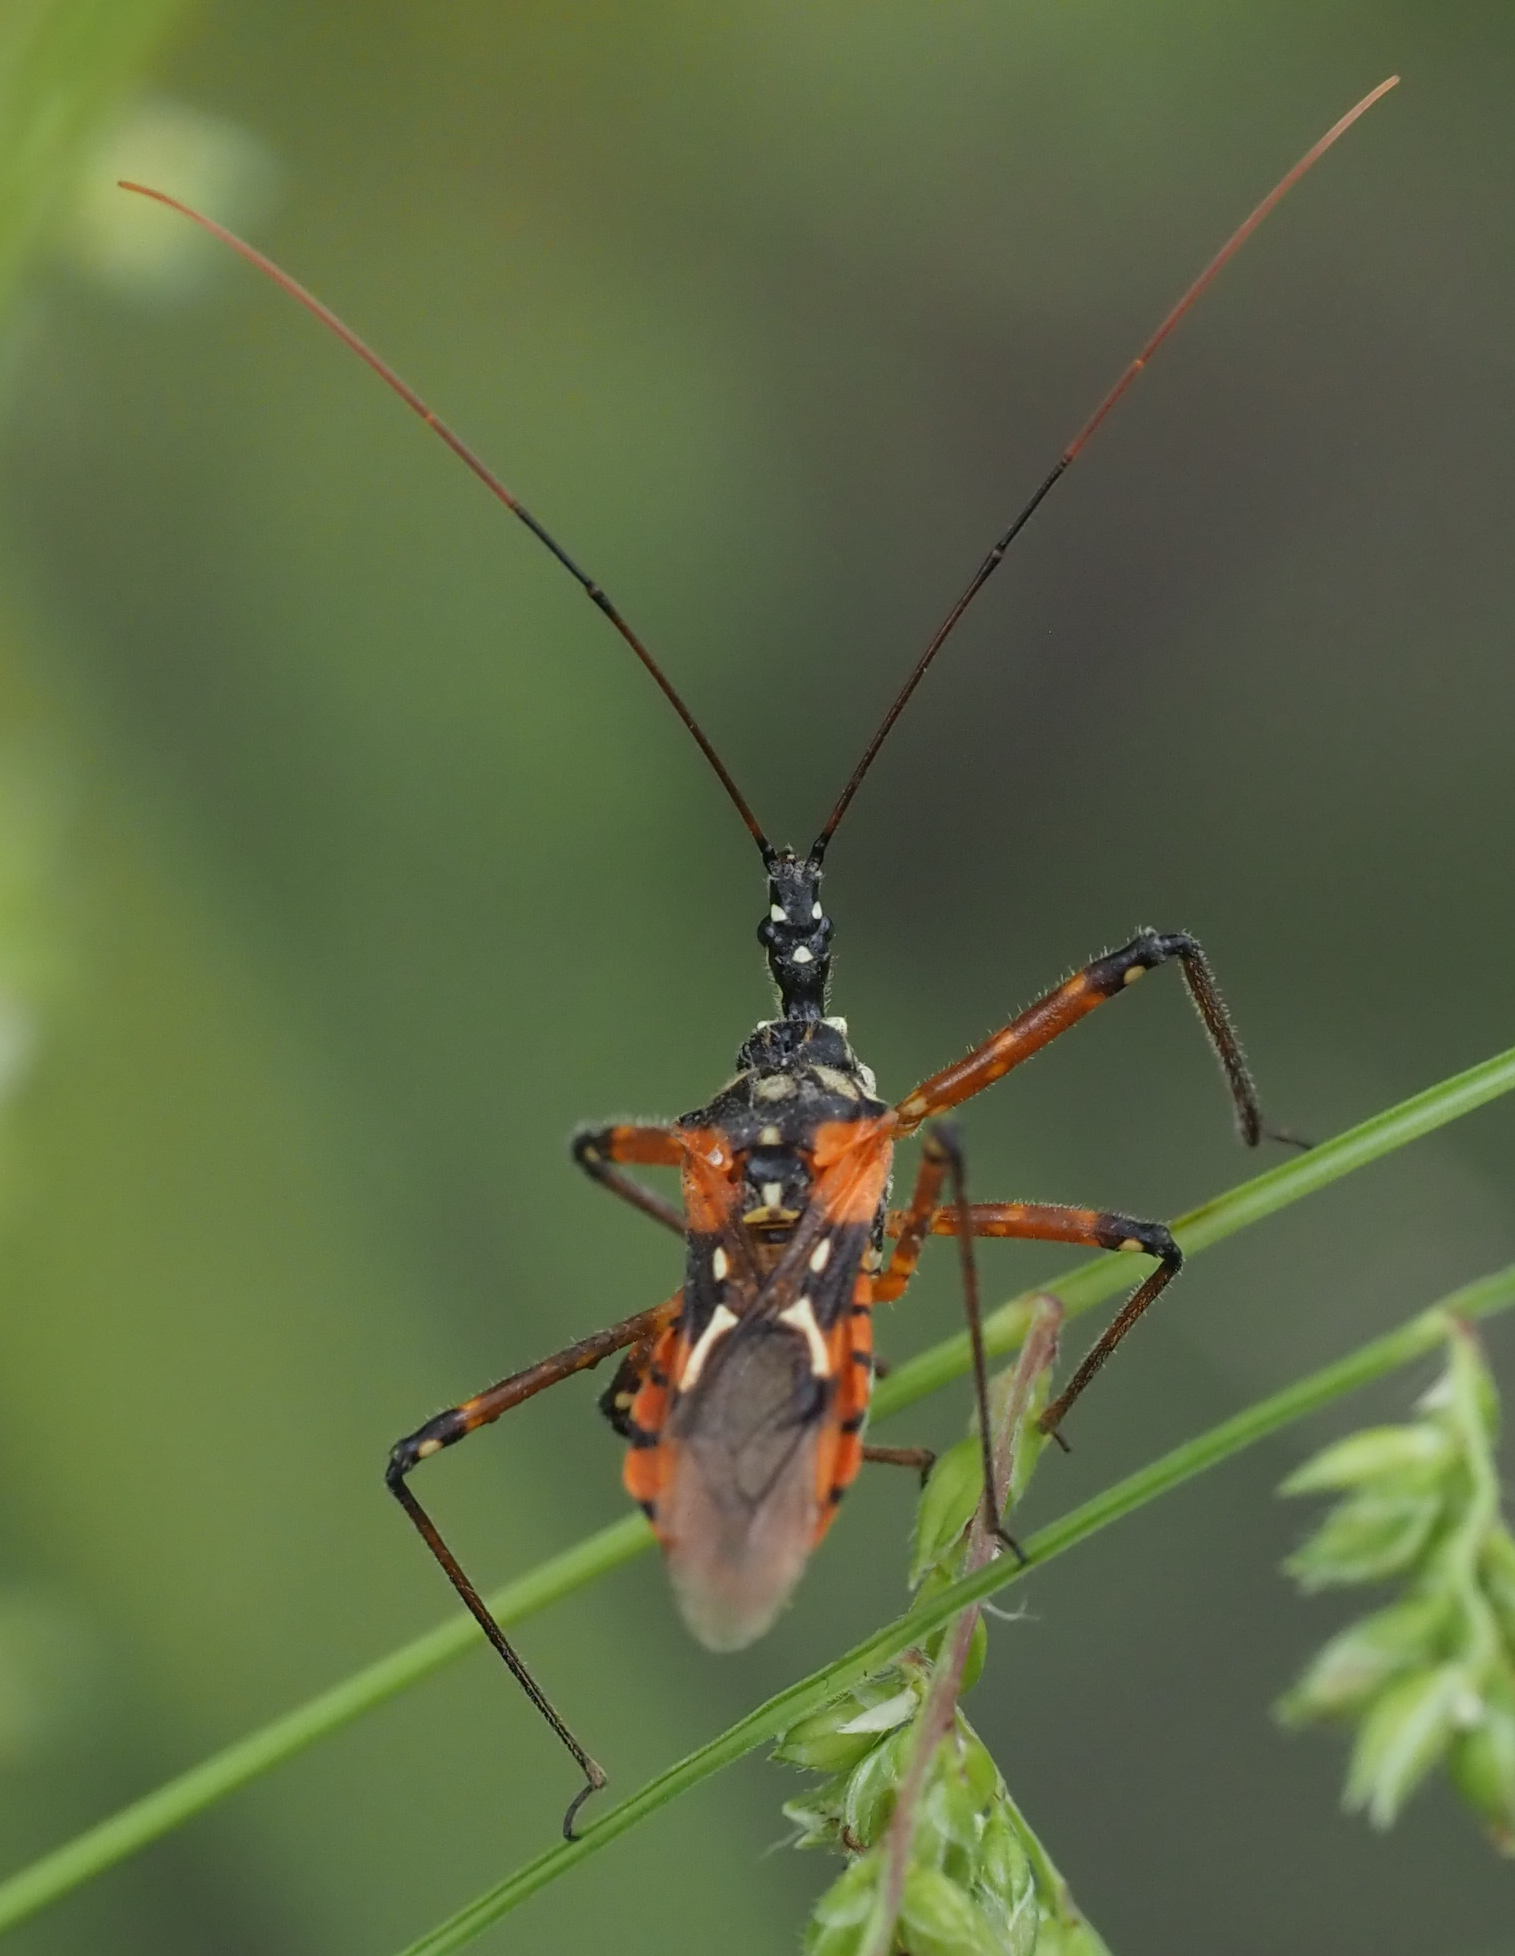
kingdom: Animalia
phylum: Arthropoda
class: Insecta
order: Hemiptera
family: Reduviidae
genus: Cosmolestes
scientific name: Cosmolestes pictus
